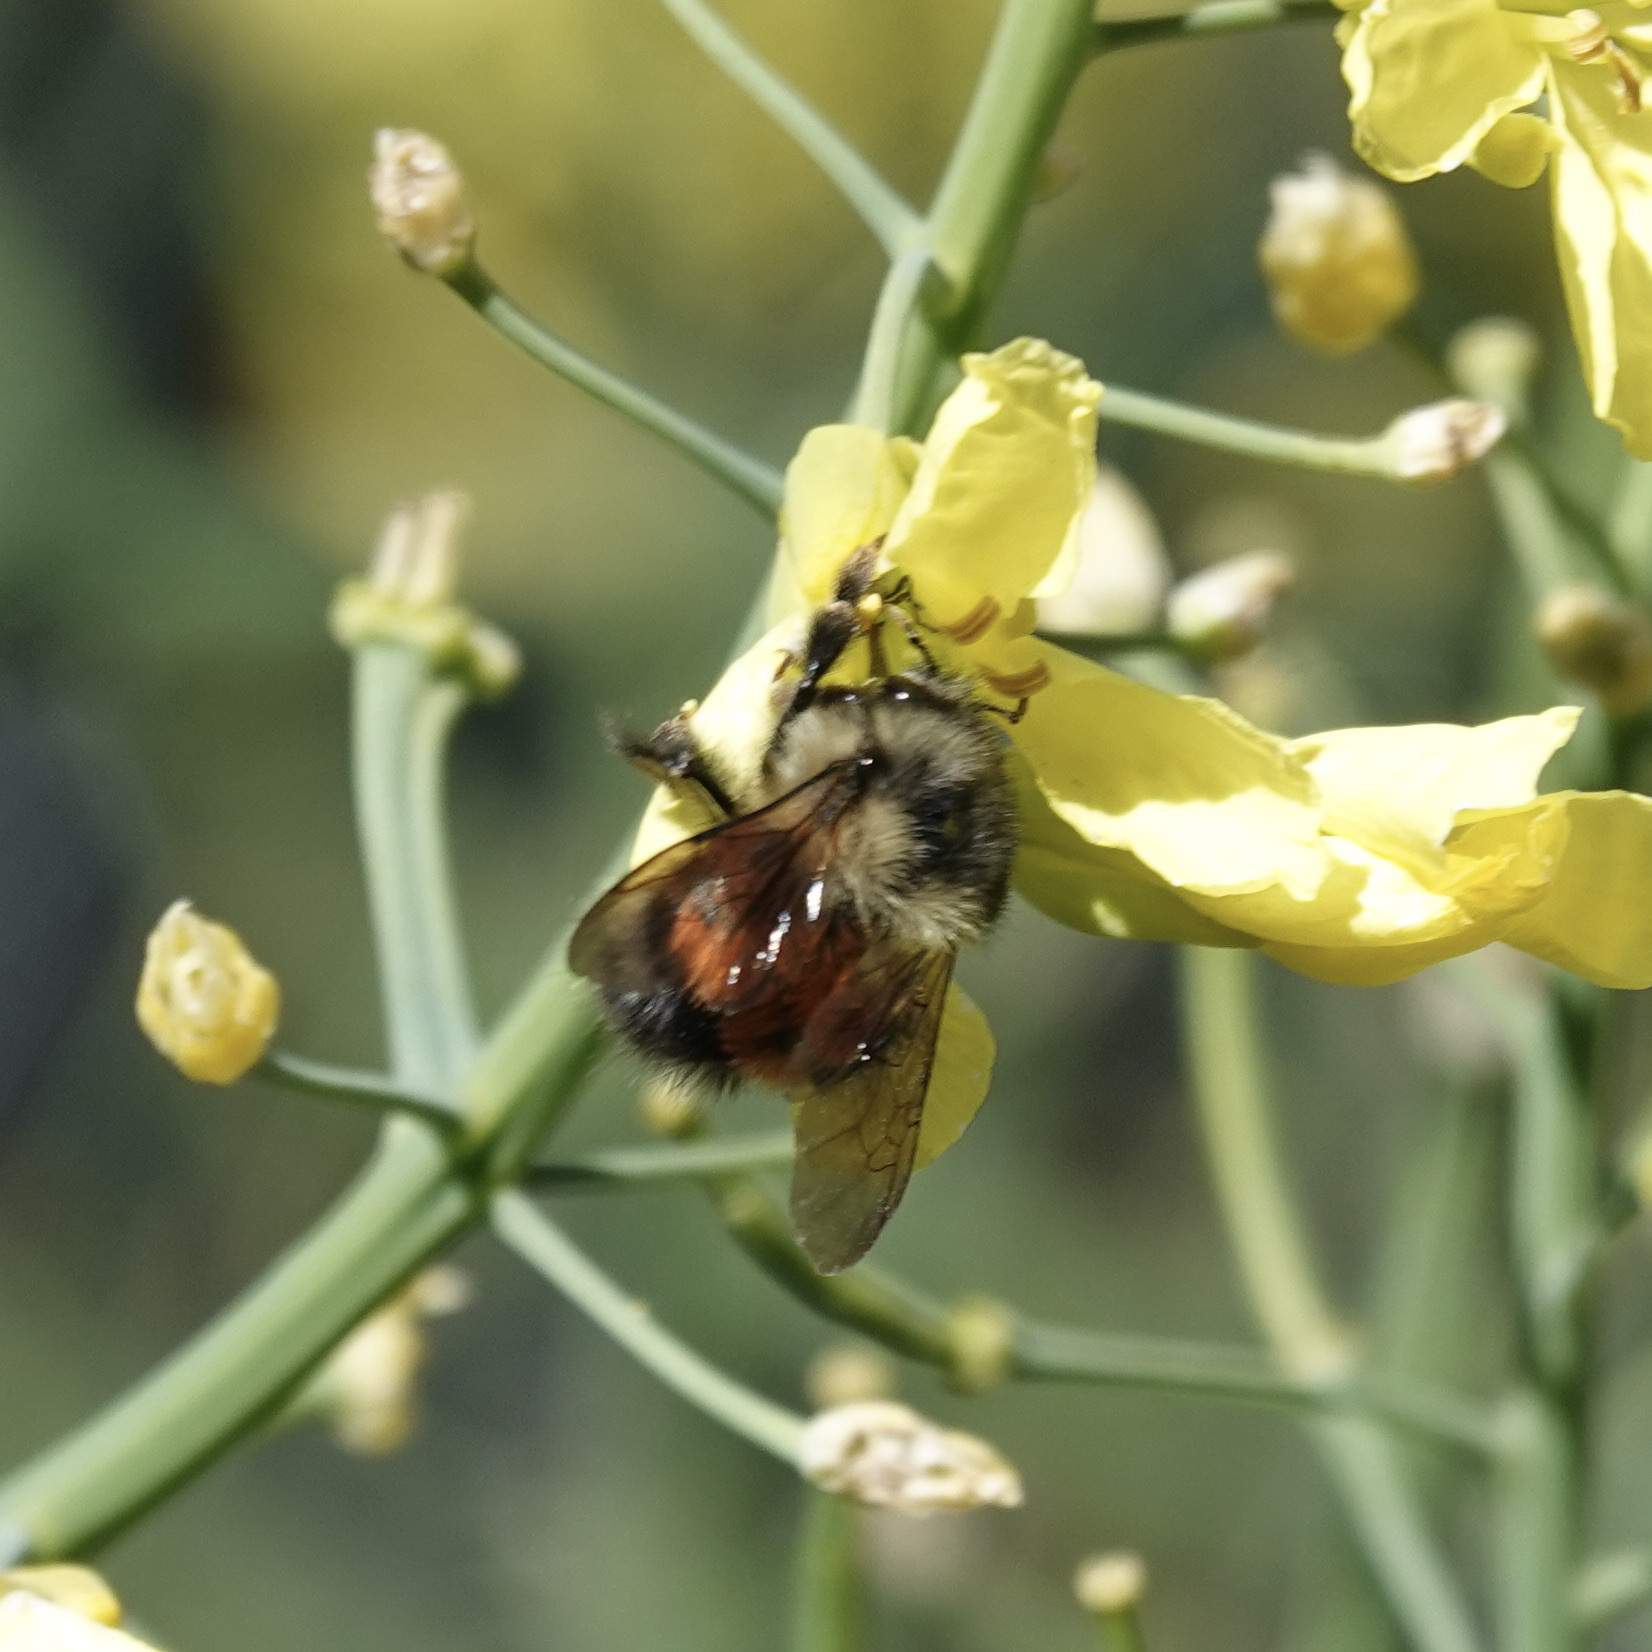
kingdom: Animalia
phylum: Arthropoda
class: Insecta
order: Hymenoptera
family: Apidae
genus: Bombus
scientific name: Bombus melanopygus
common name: Black tail bumble bee
